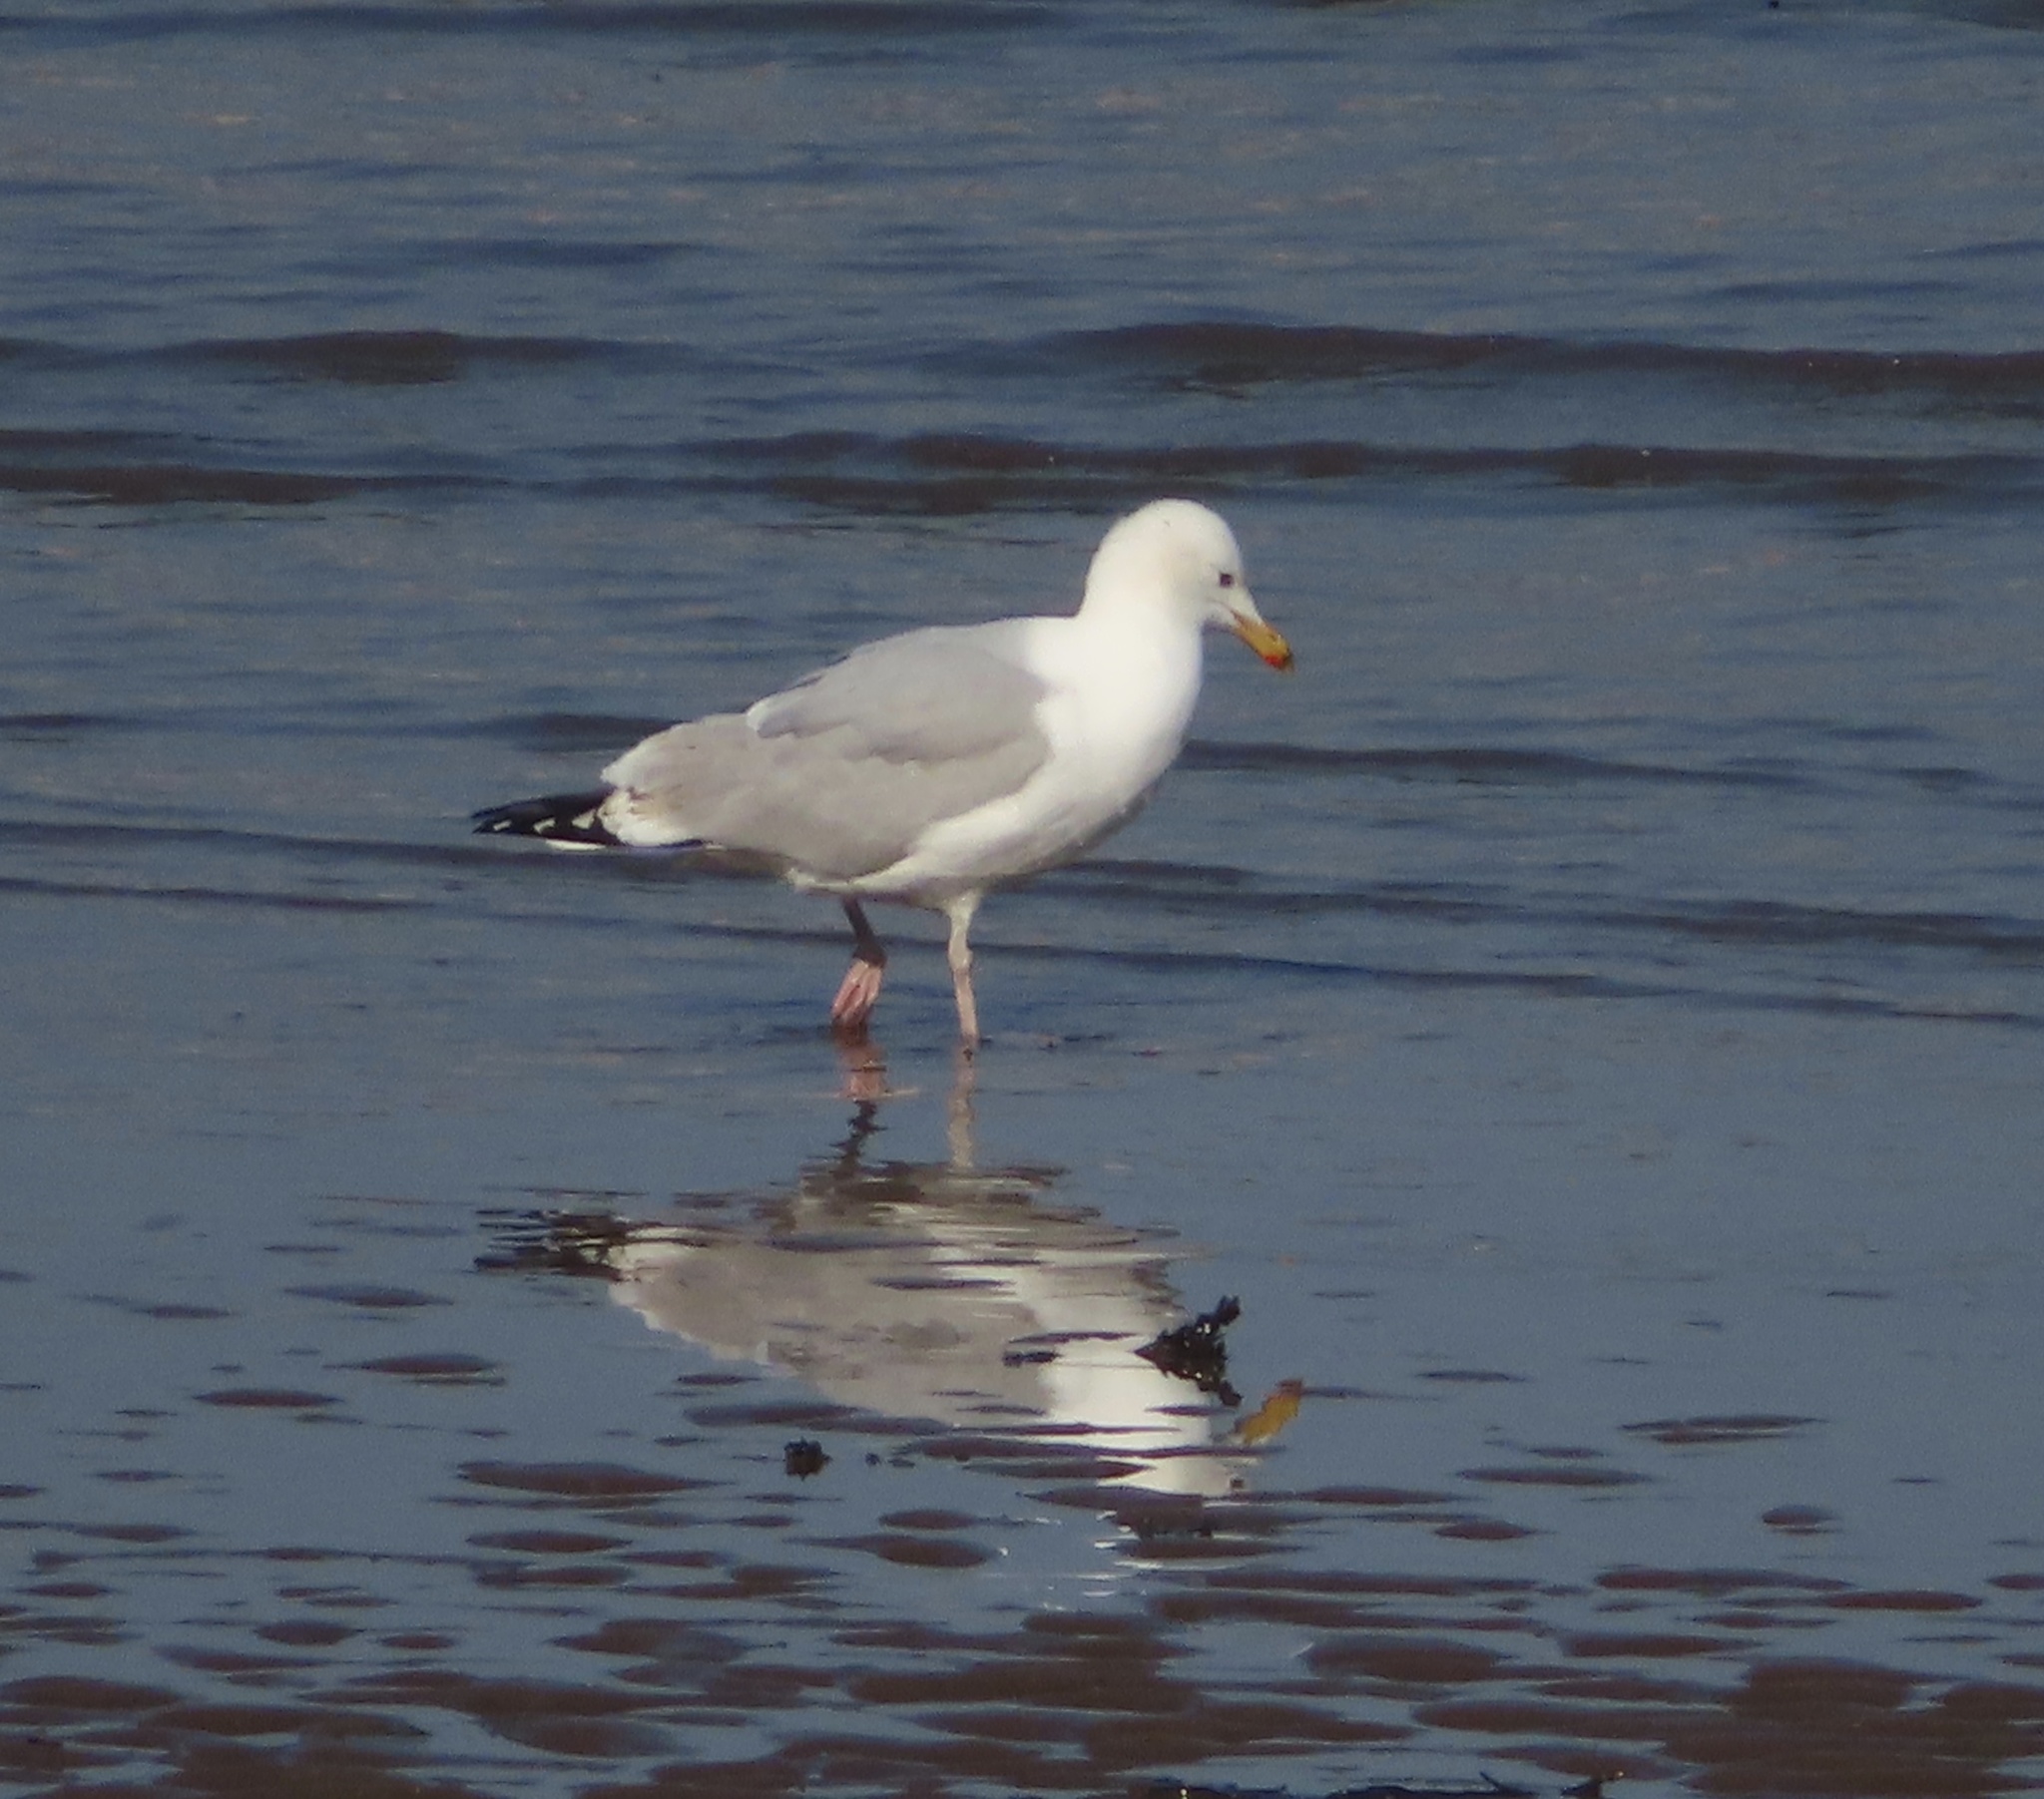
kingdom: Animalia
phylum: Chordata
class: Aves
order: Charadriiformes
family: Laridae
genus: Larus
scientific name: Larus argentatus
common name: Herring gull
